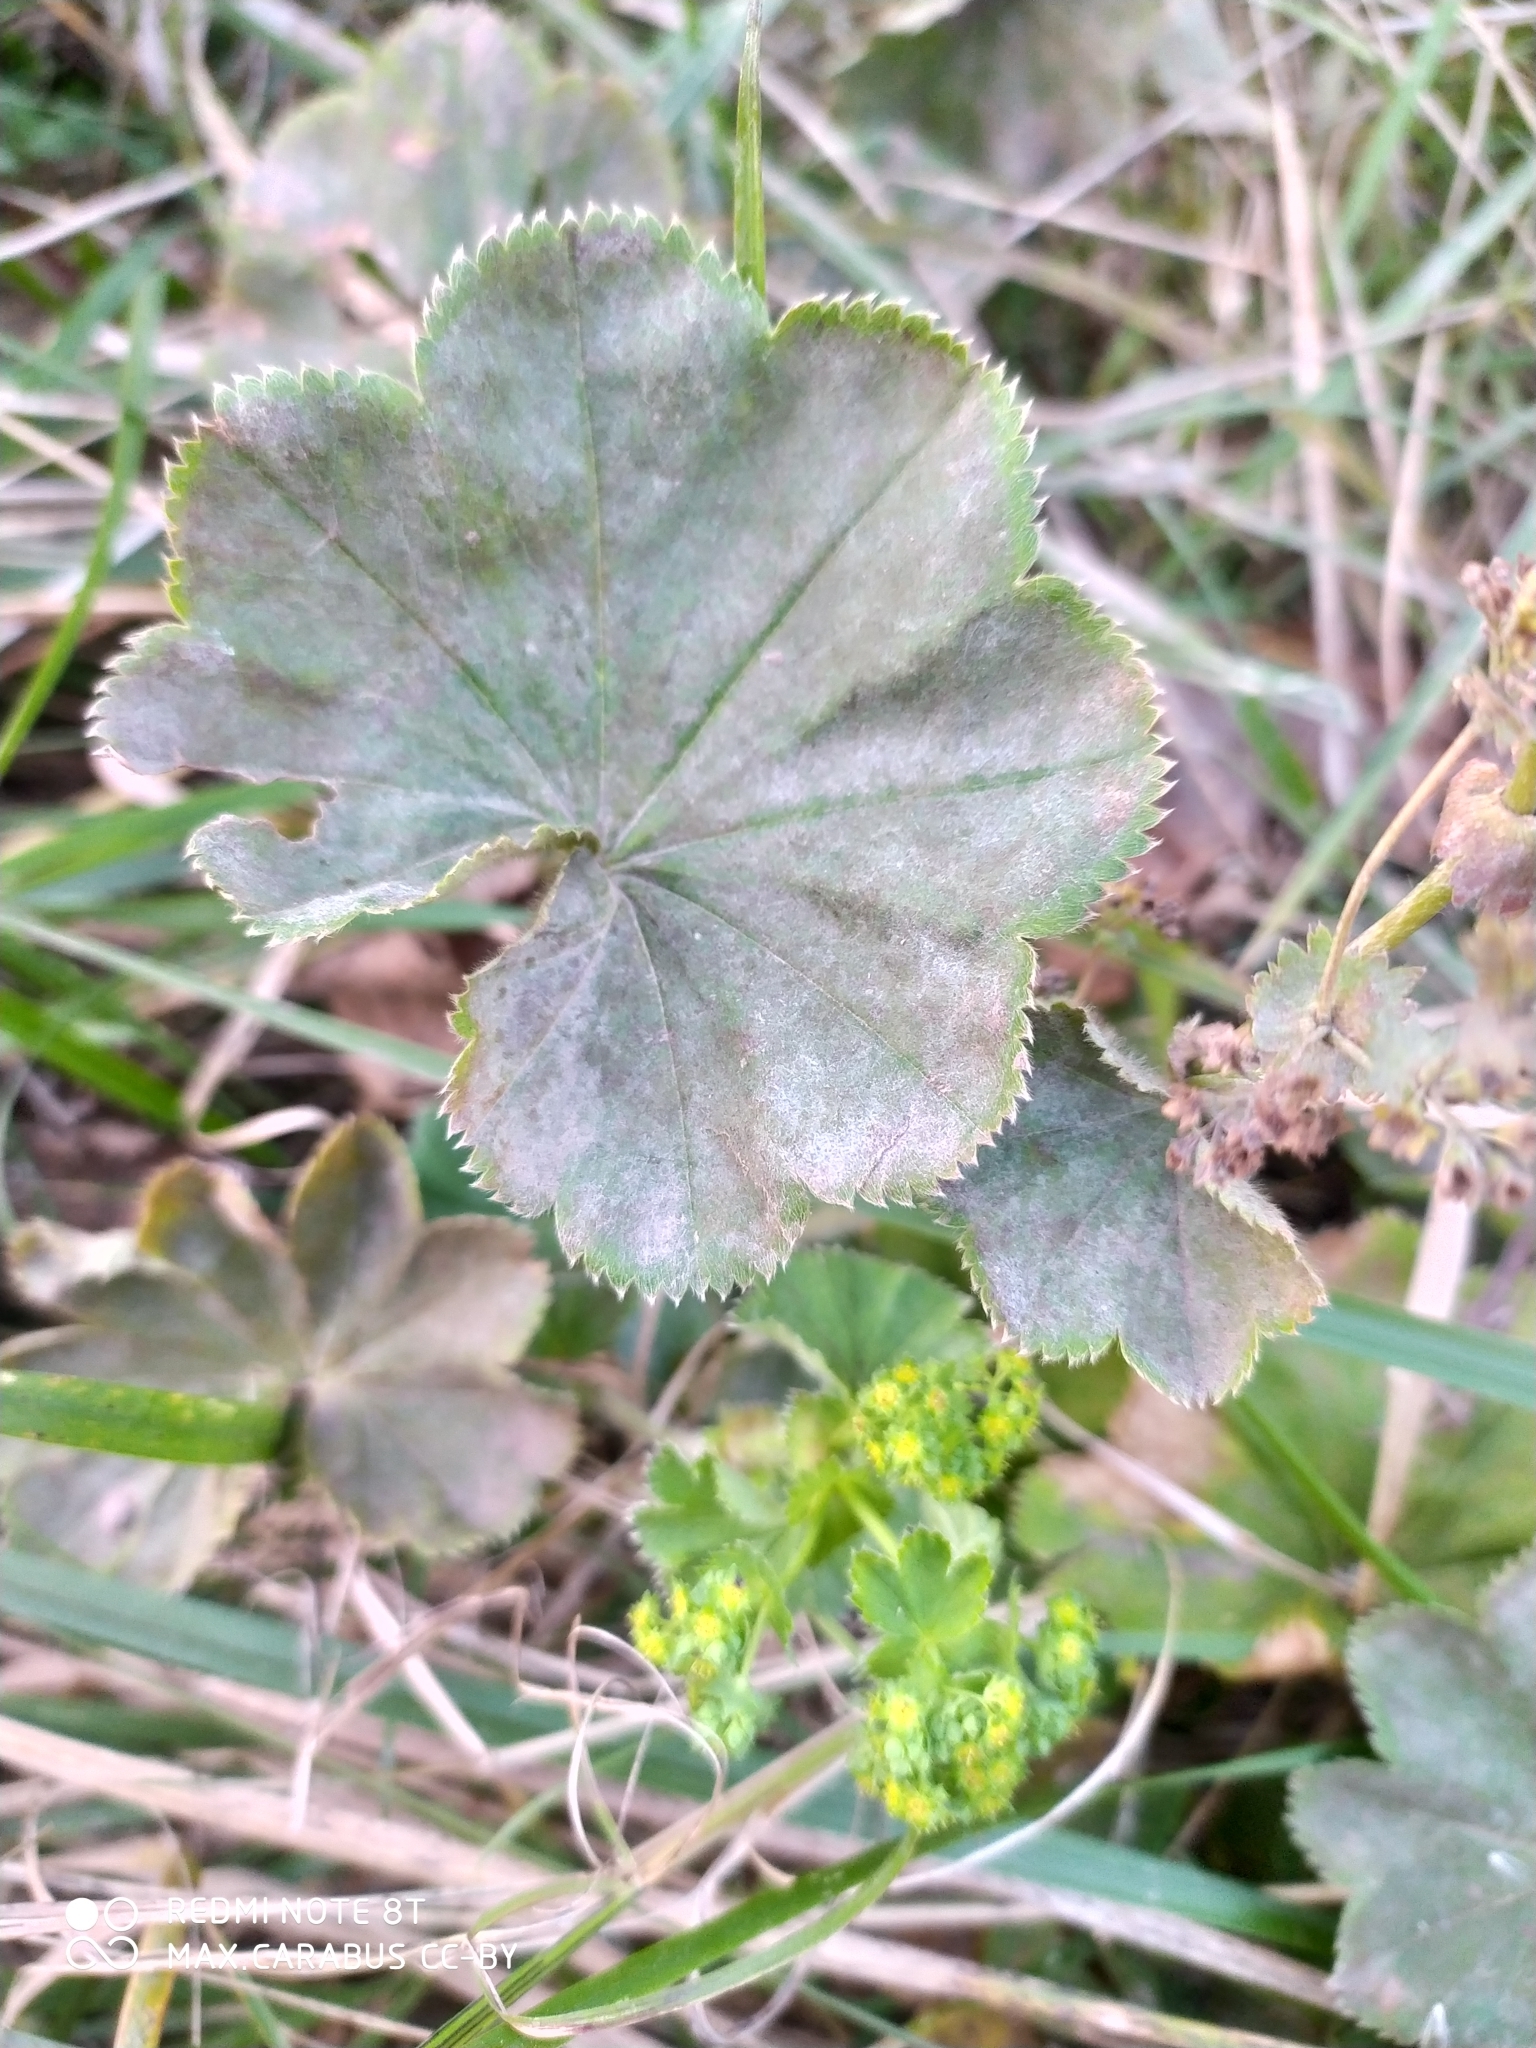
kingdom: Plantae
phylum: Tracheophyta
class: Magnoliopsida
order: Rosales
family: Rosaceae
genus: Alchemilla
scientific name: Alchemilla lindbergiana
